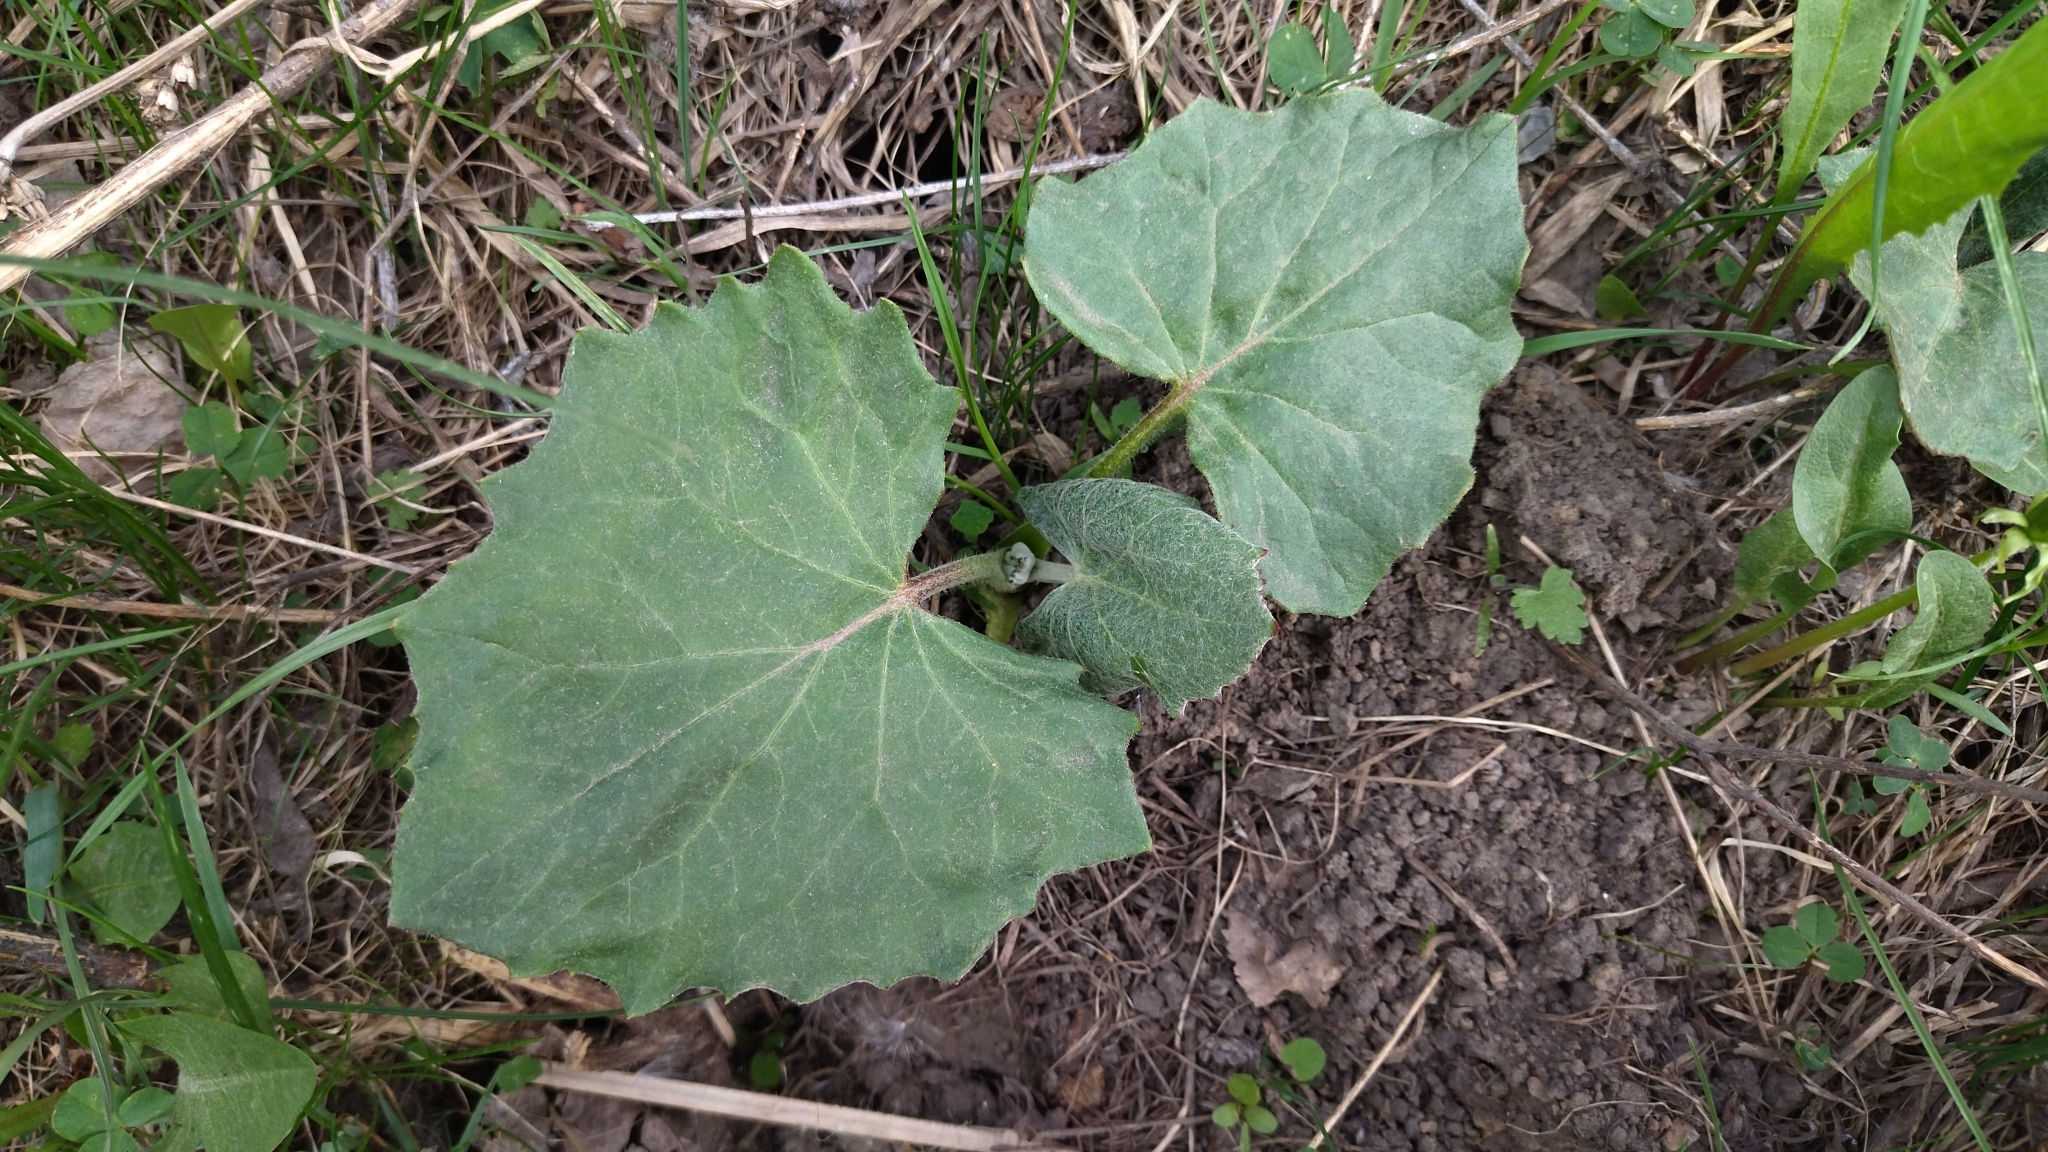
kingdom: Plantae
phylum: Tracheophyta
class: Magnoliopsida
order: Asterales
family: Asteraceae
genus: Tussilago
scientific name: Tussilago farfara
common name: Coltsfoot
